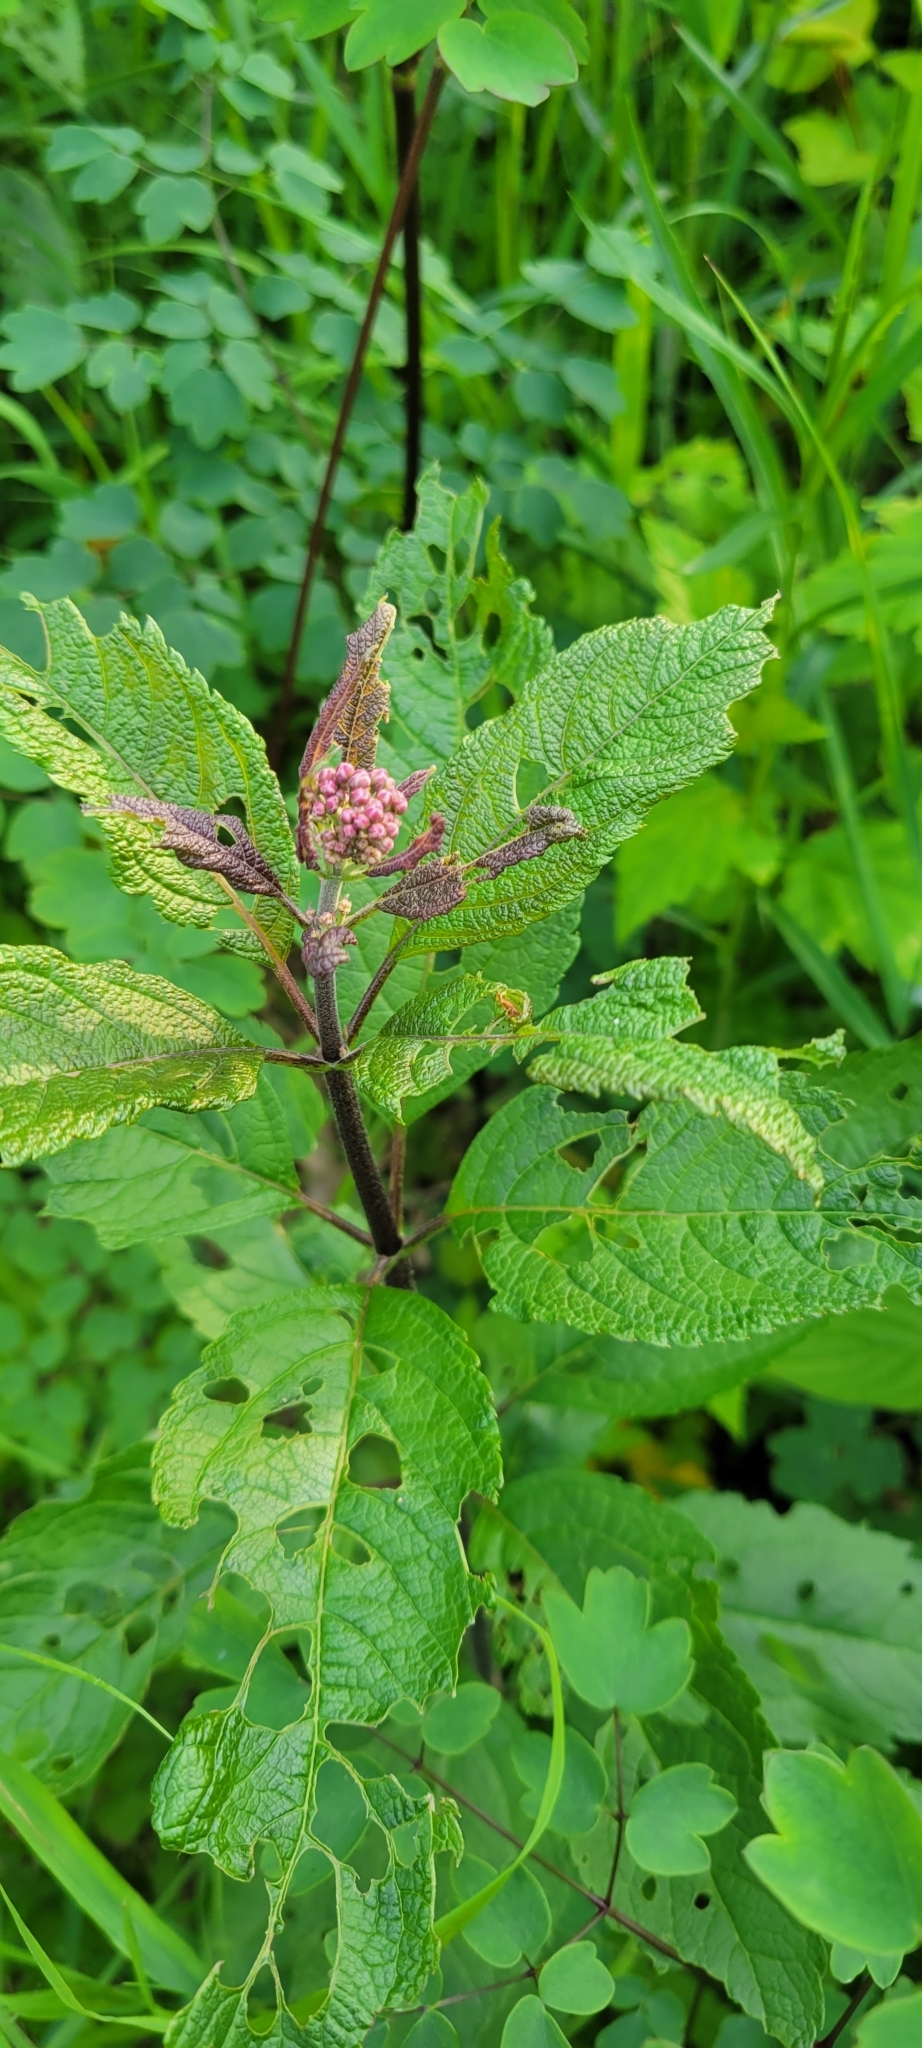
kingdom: Plantae
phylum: Tracheophyta
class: Magnoliopsida
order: Asterales
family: Asteraceae
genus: Eutrochium
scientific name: Eutrochium maculatum
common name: Spotted joe pye weed
